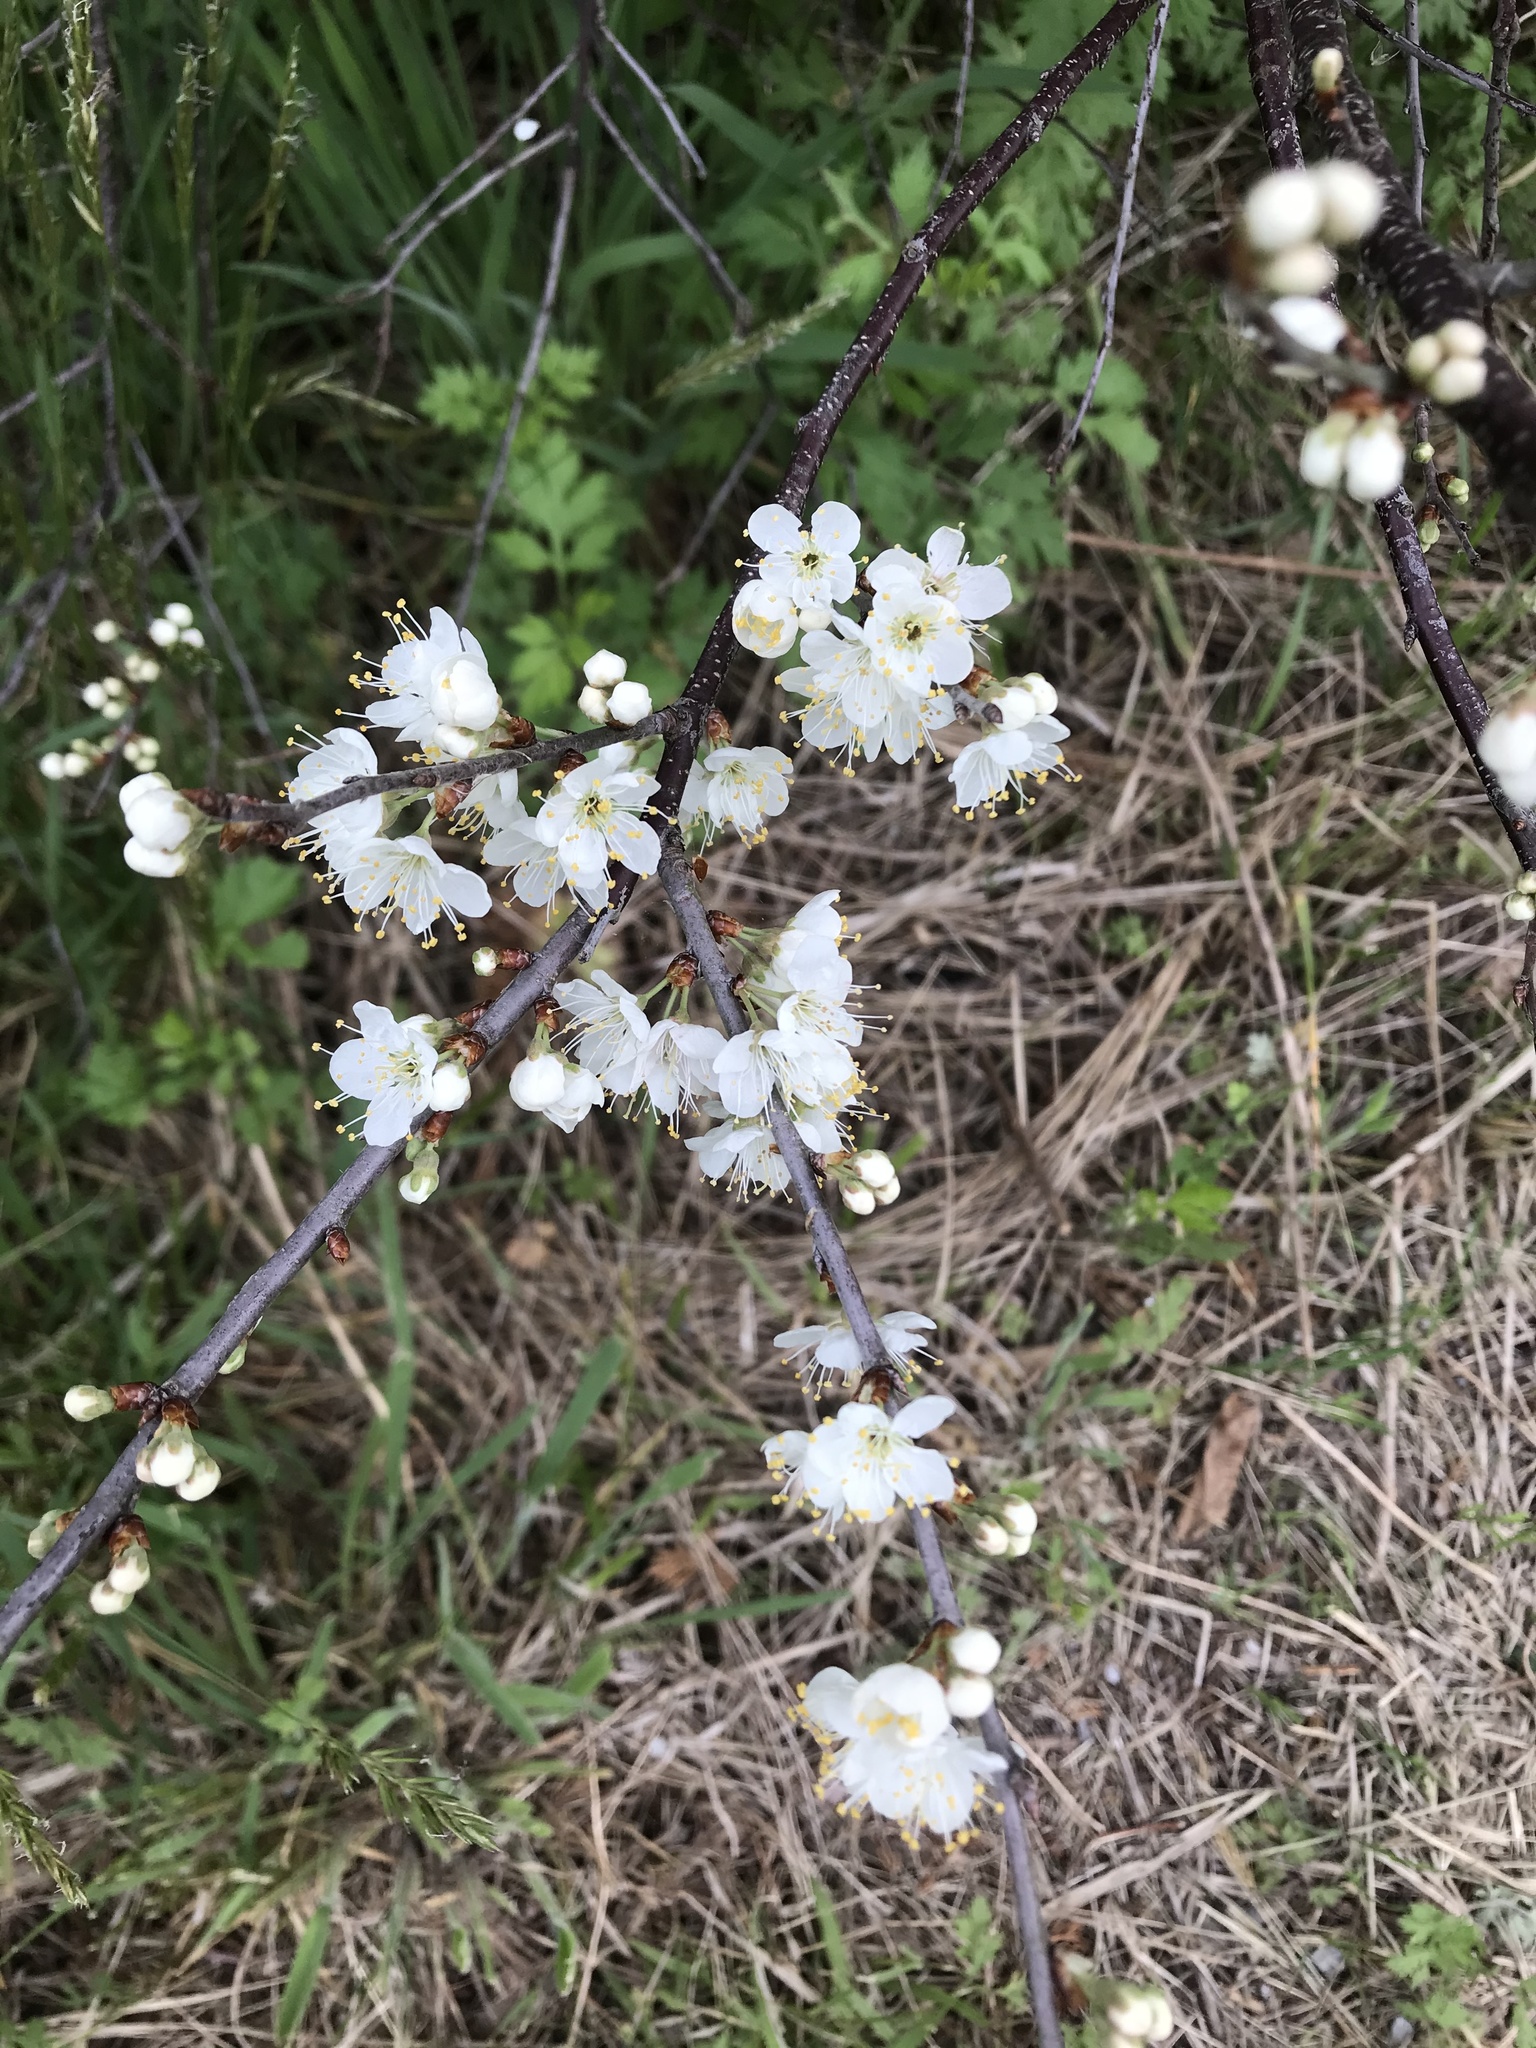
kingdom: Plantae
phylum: Tracheophyta
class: Magnoliopsida
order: Rosales
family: Rosaceae
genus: Prunus
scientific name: Prunus maritima
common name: Beach plum
